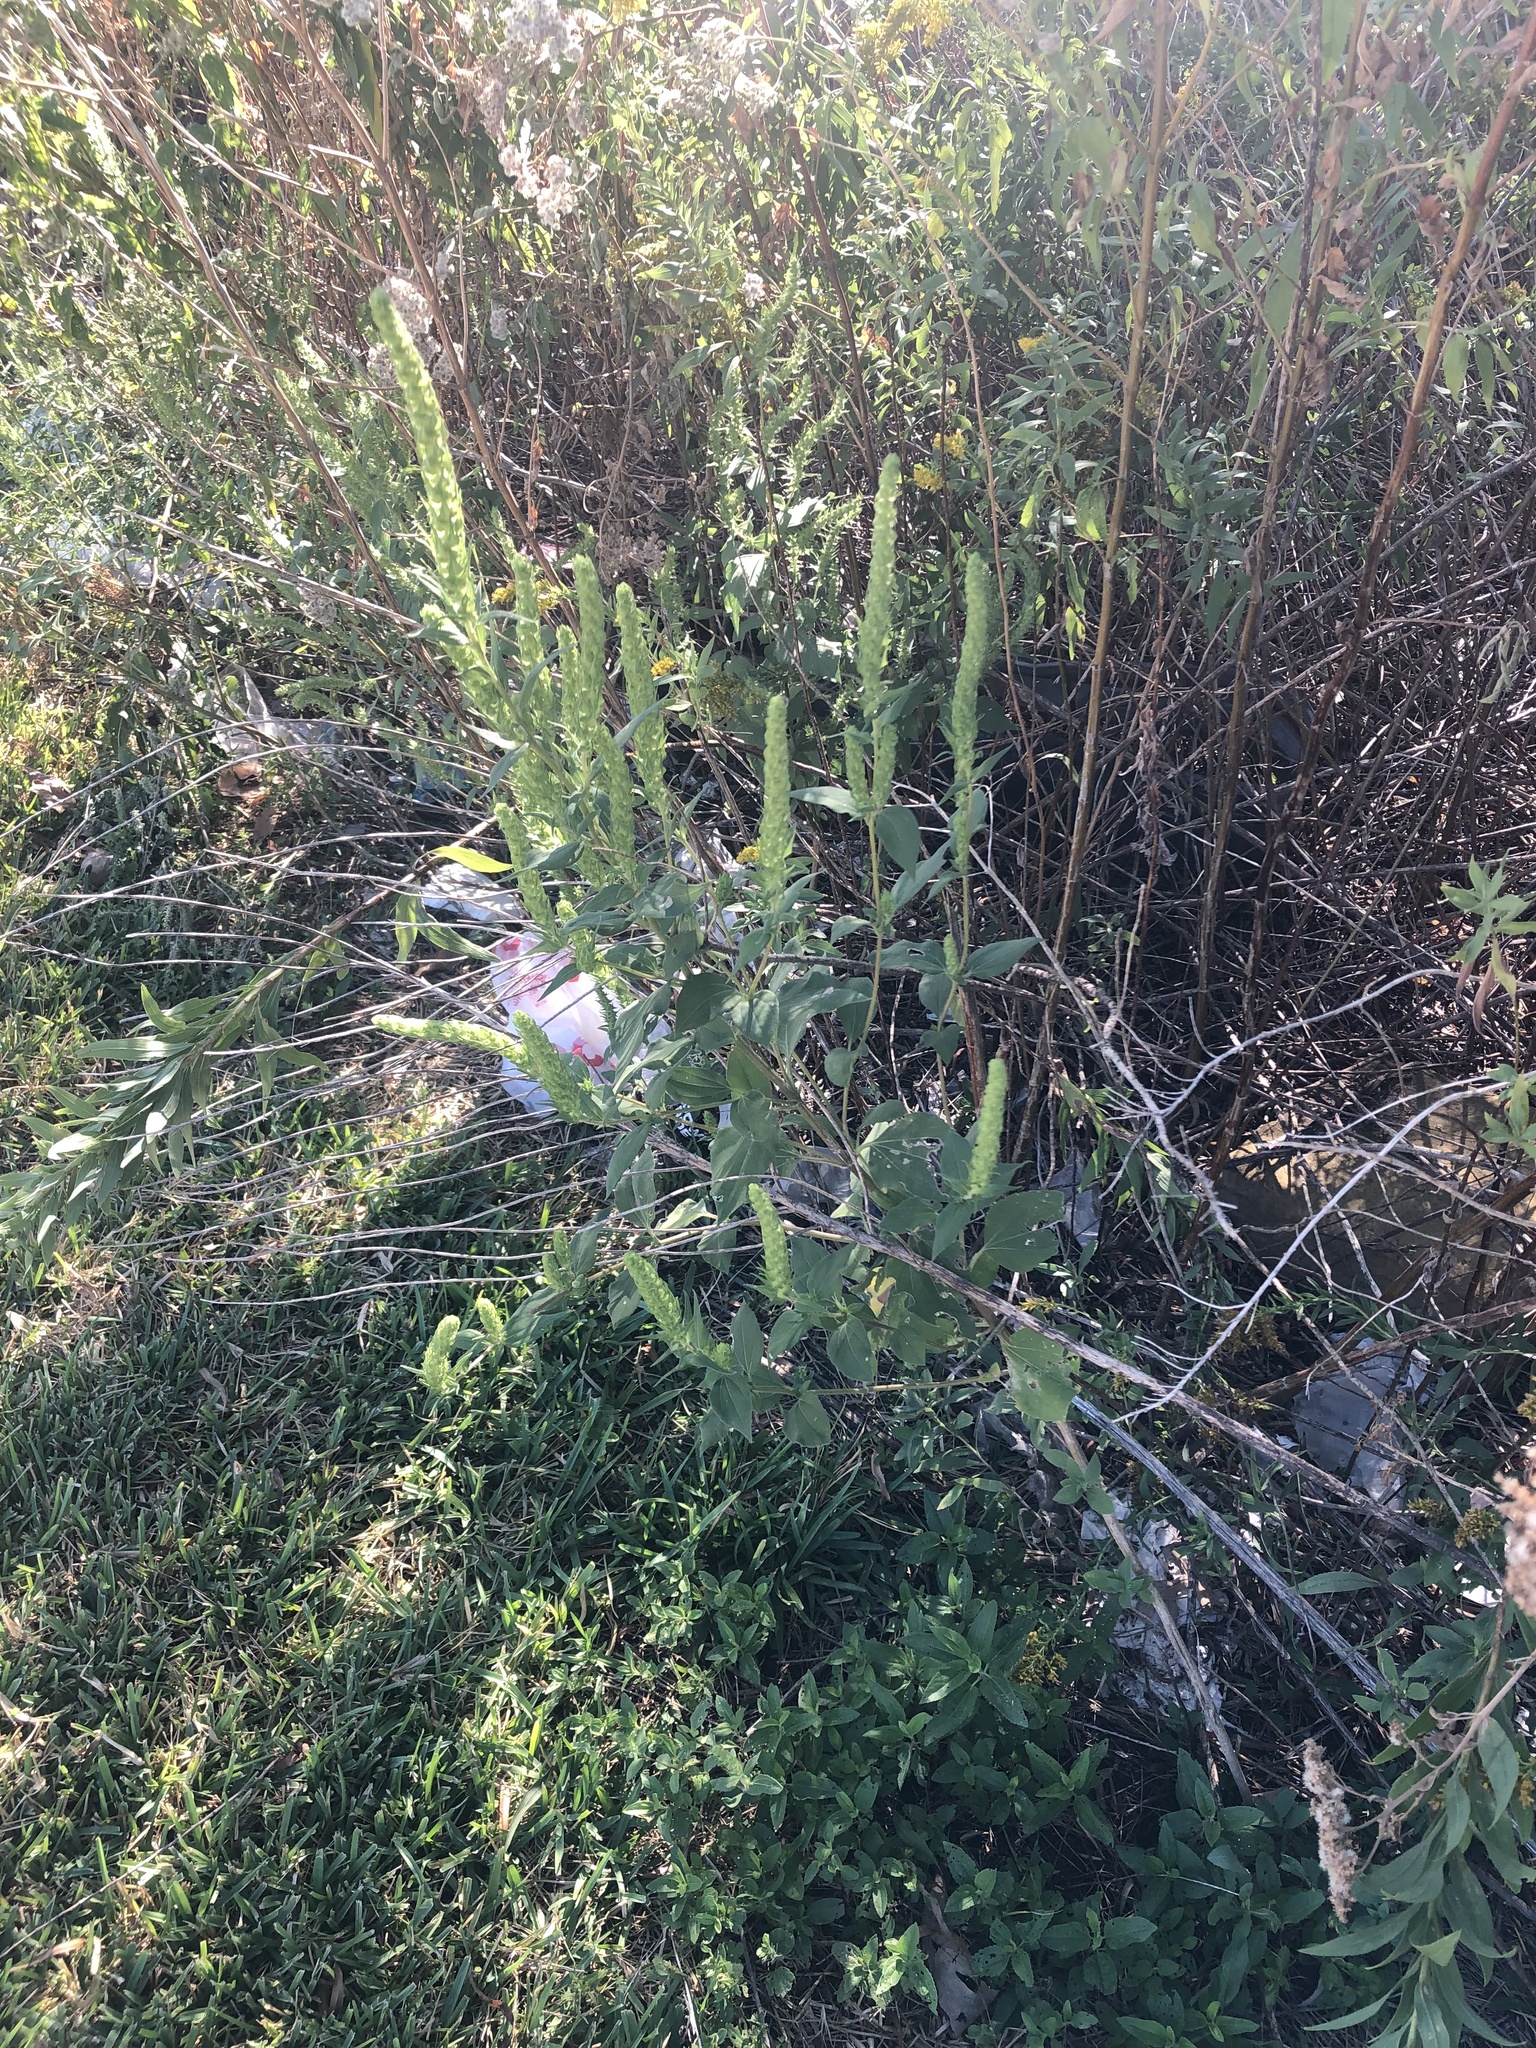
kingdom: Plantae
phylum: Tracheophyta
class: Magnoliopsida
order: Asterales
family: Asteraceae
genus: Iva
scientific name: Iva annua
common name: Marsh-elder
